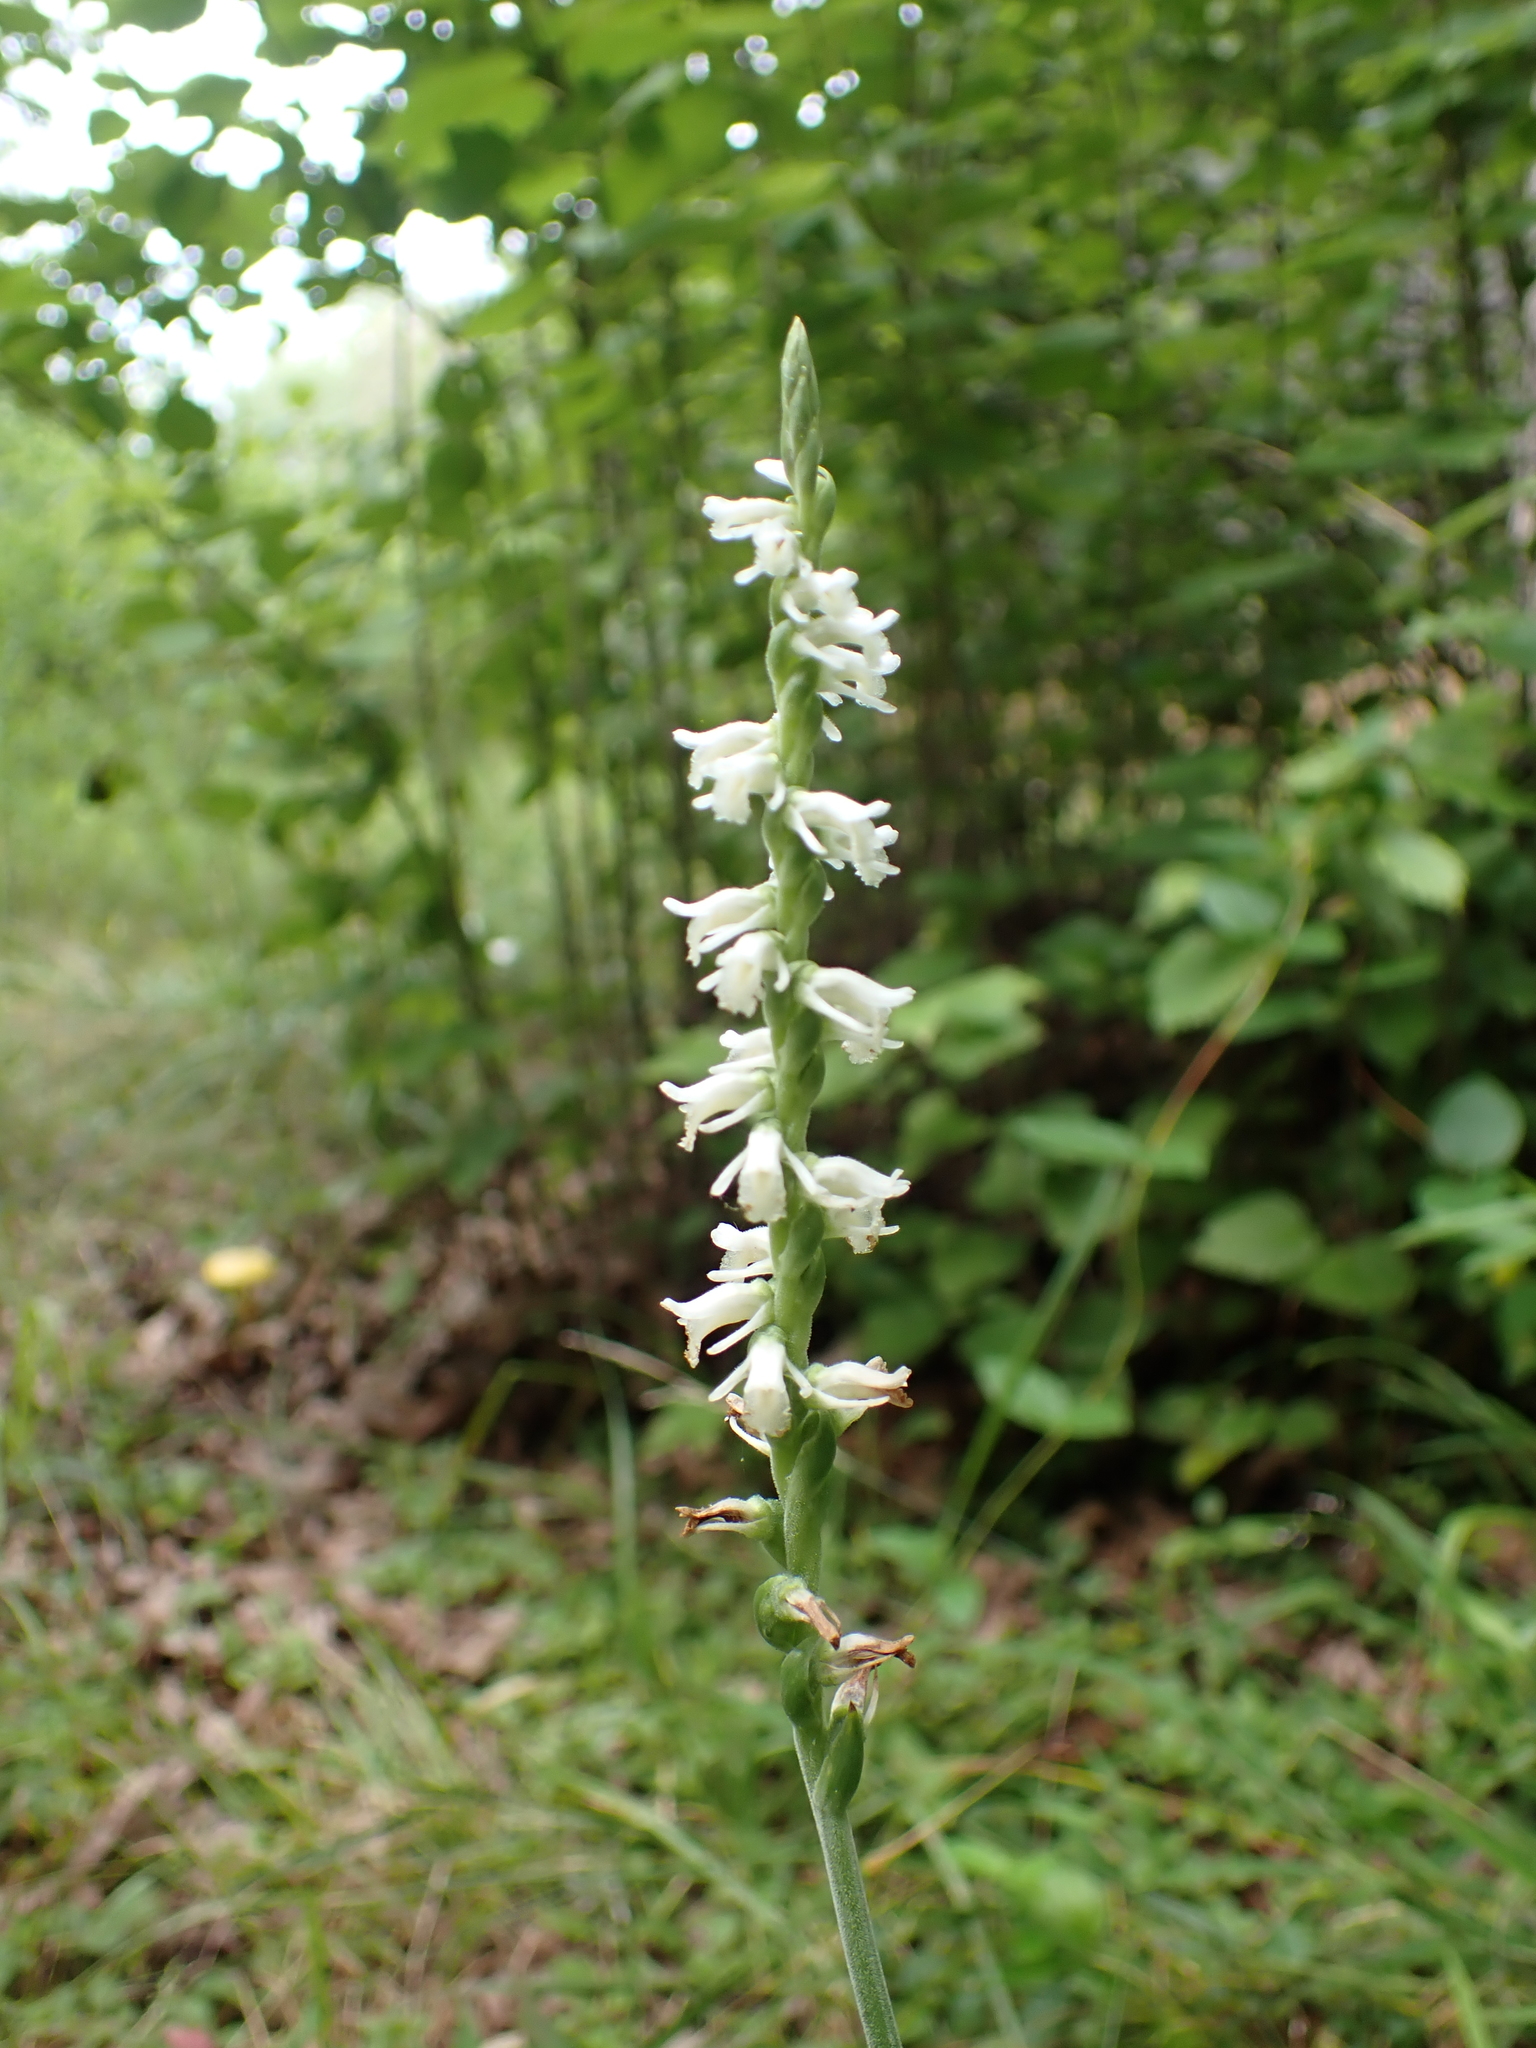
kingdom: Plantae
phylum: Tracheophyta
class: Liliopsida
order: Asparagales
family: Orchidaceae
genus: Spiranthes
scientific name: Spiranthes vernalis
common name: Spring ladies'-tresses
